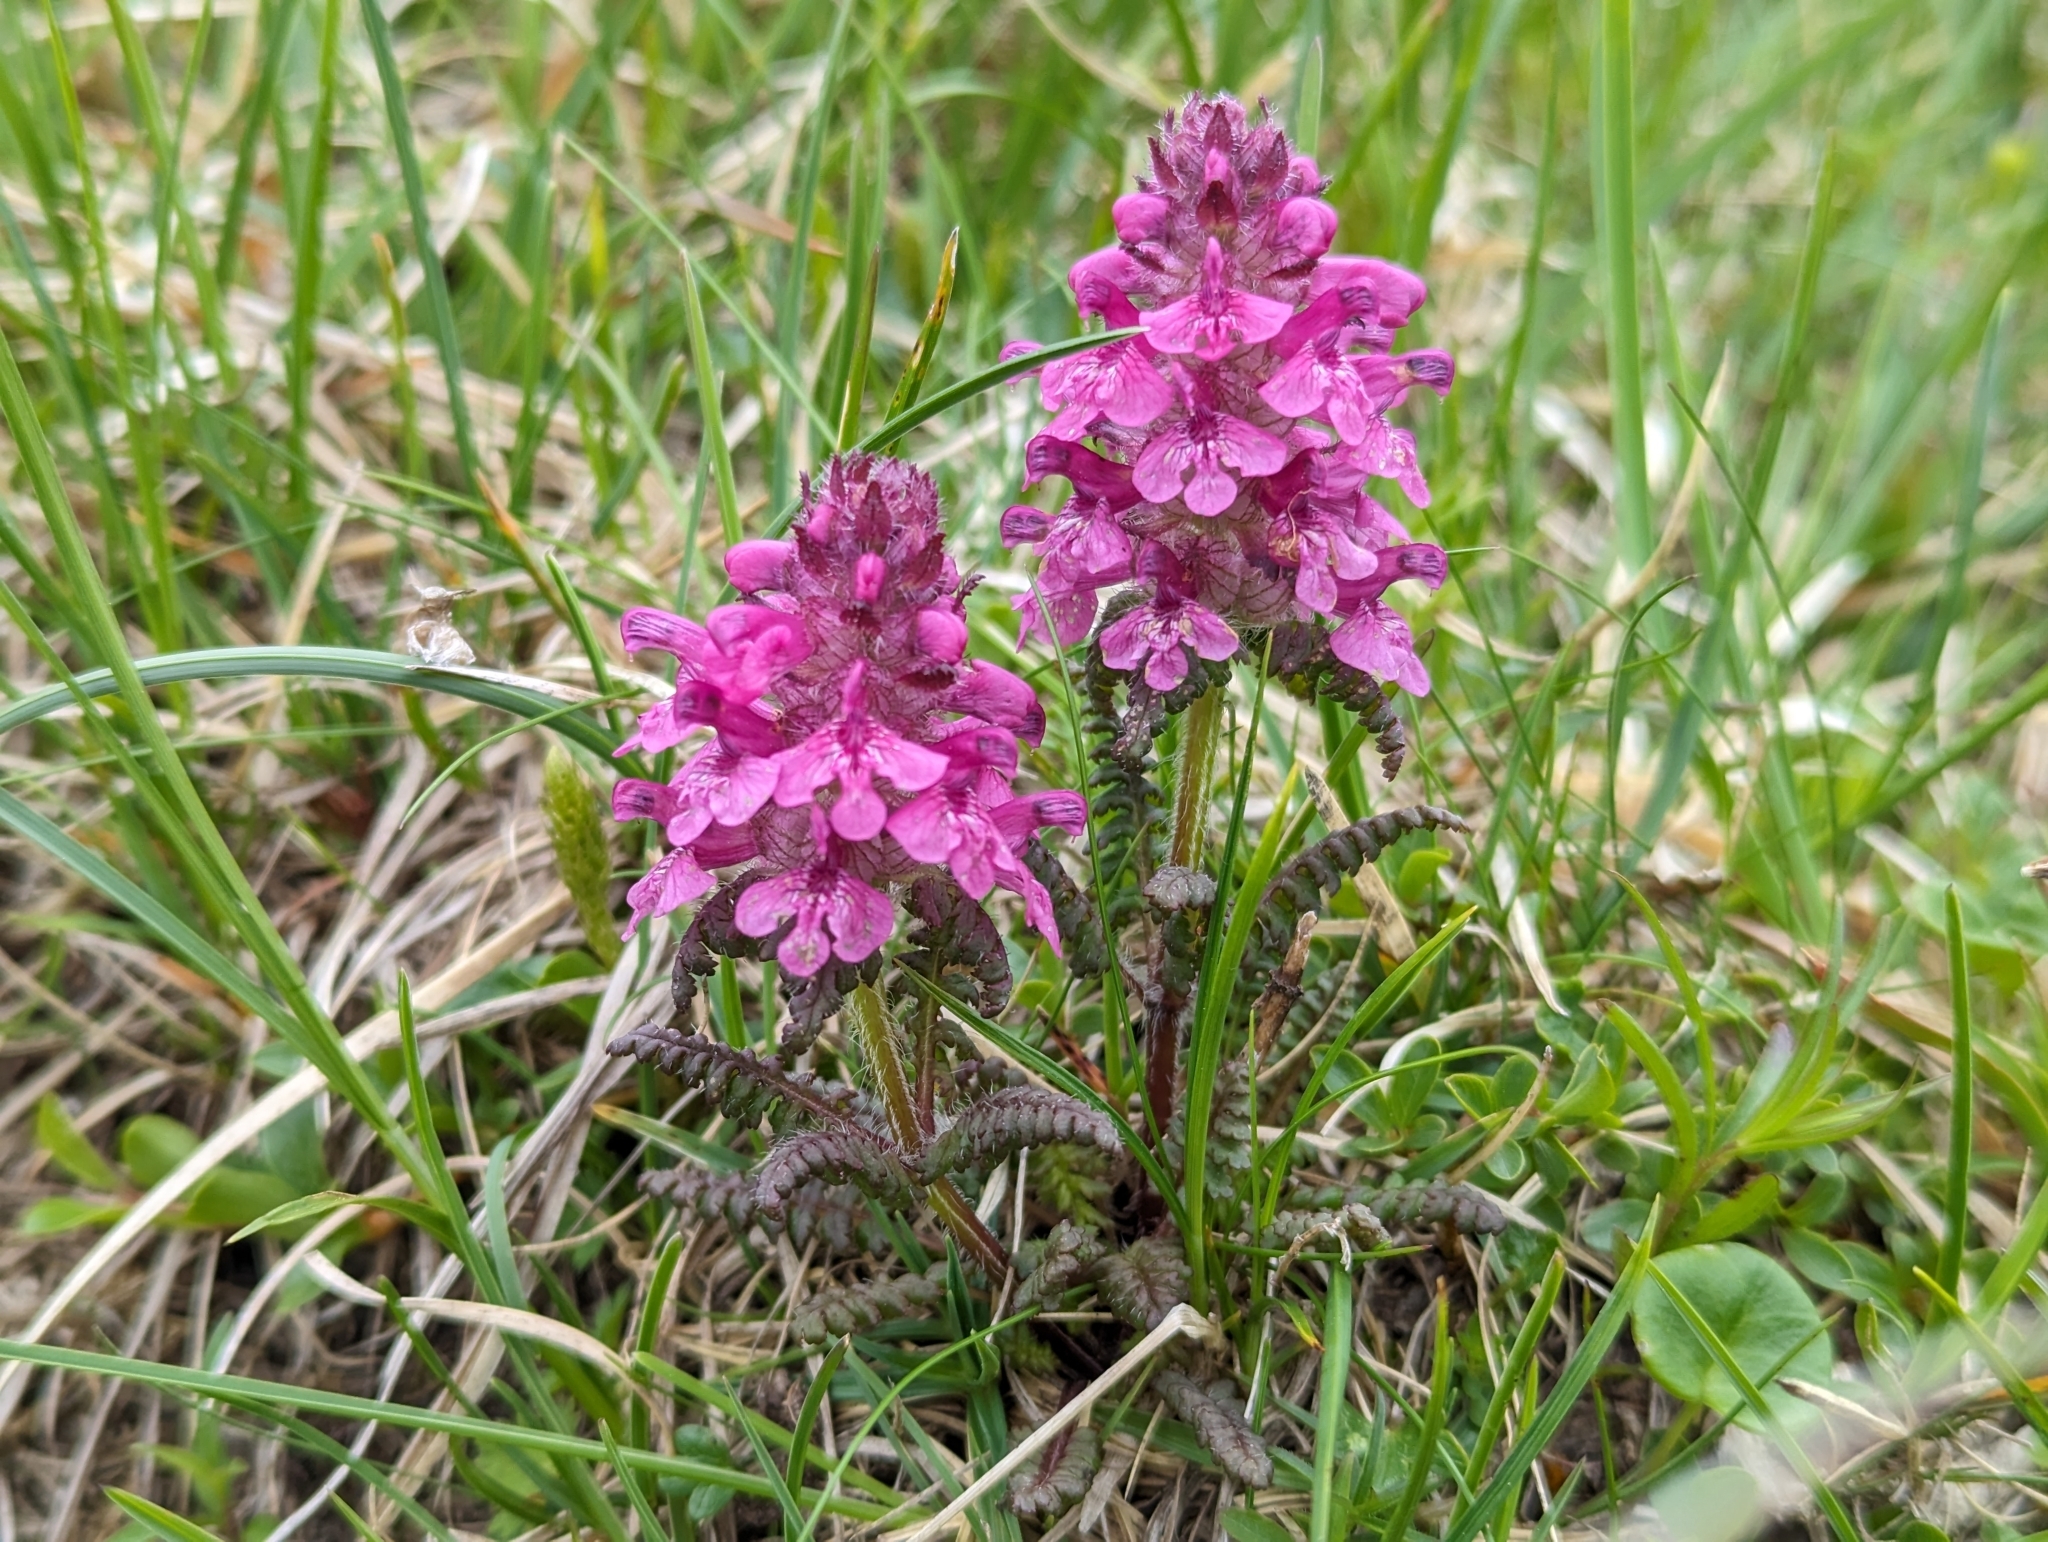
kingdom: Plantae
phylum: Tracheophyta
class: Magnoliopsida
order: Lamiales
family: Orobanchaceae
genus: Pedicularis
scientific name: Pedicularis verticillata
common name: Whorled lousewort
